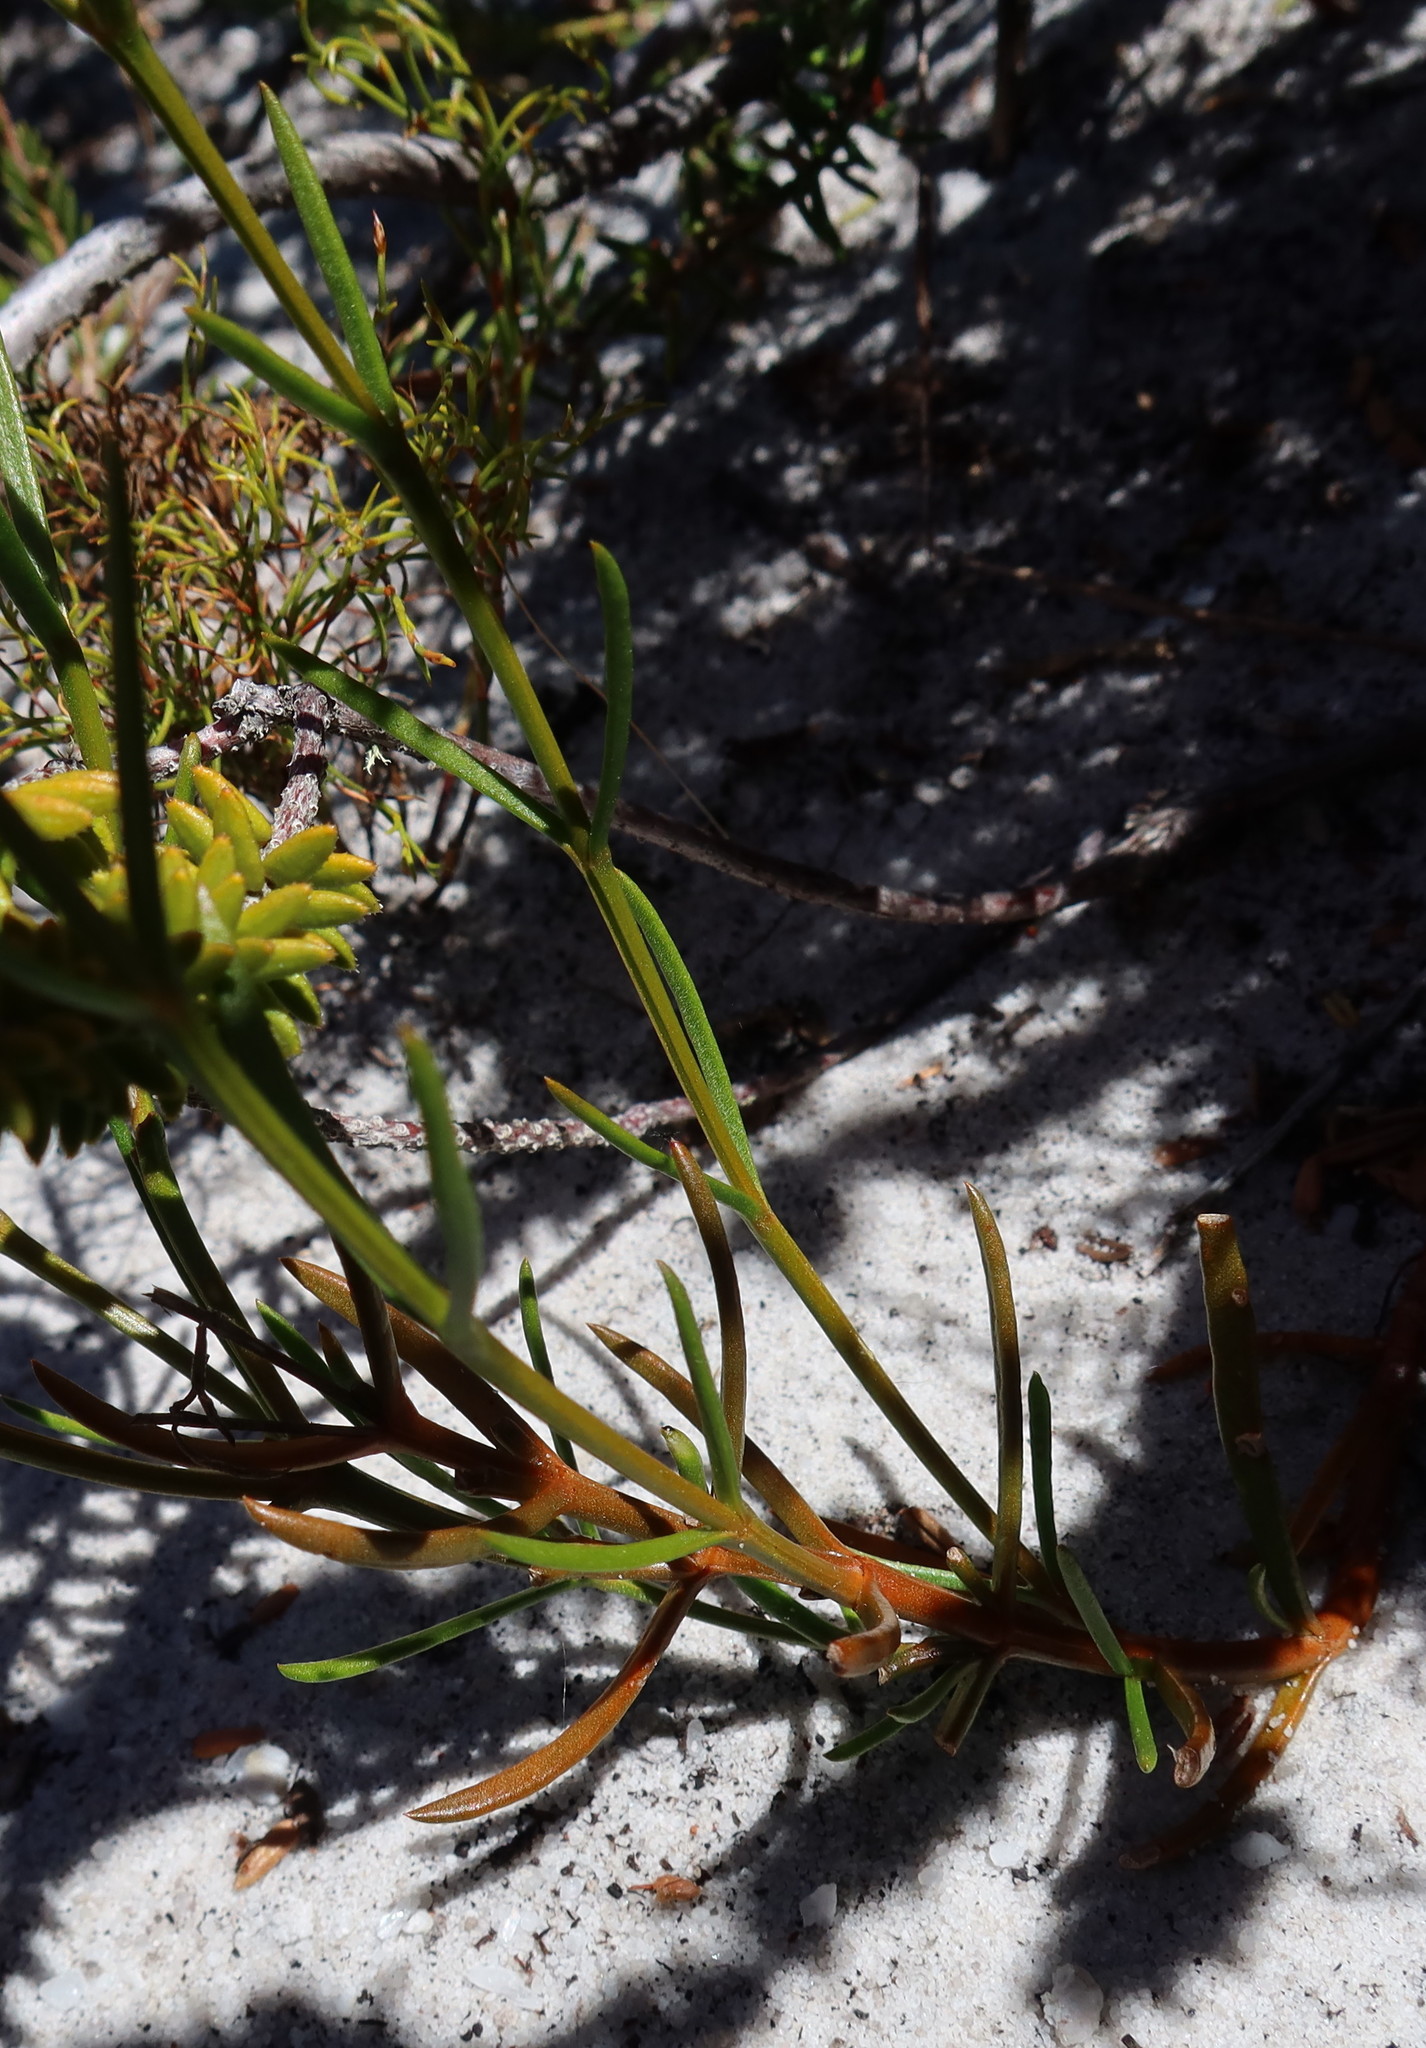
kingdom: Plantae
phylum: Tracheophyta
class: Magnoliopsida
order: Gentianales
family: Gentianaceae
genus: Chironia
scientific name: Chironia linoides
